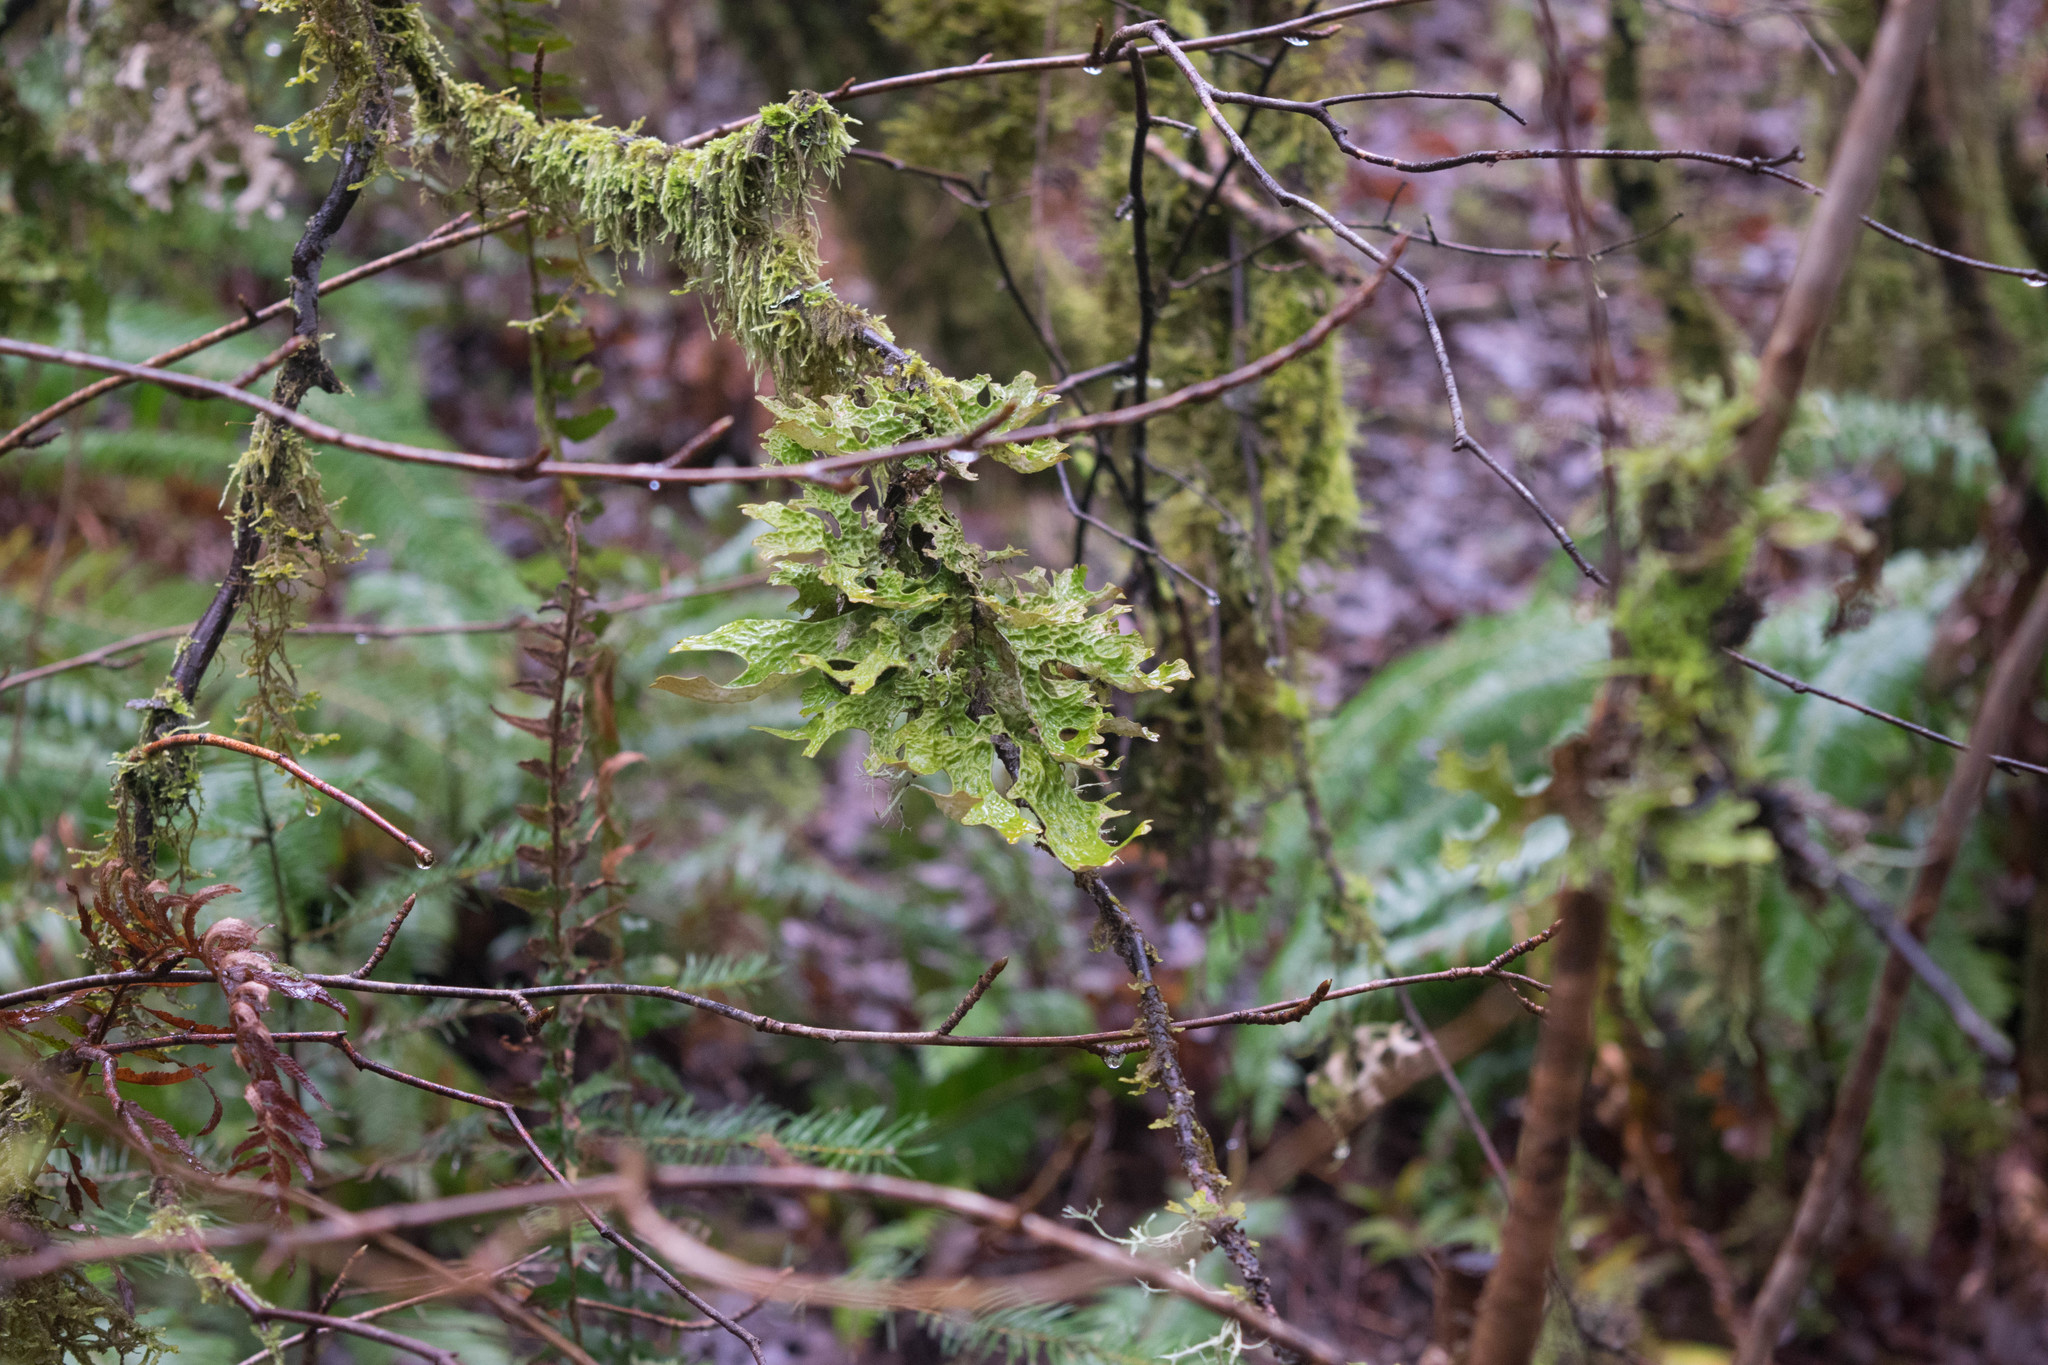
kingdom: Fungi
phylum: Ascomycota
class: Lecanoromycetes
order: Peltigerales
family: Lobariaceae
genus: Lobaria
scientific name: Lobaria pulmonaria
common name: Lungwort
